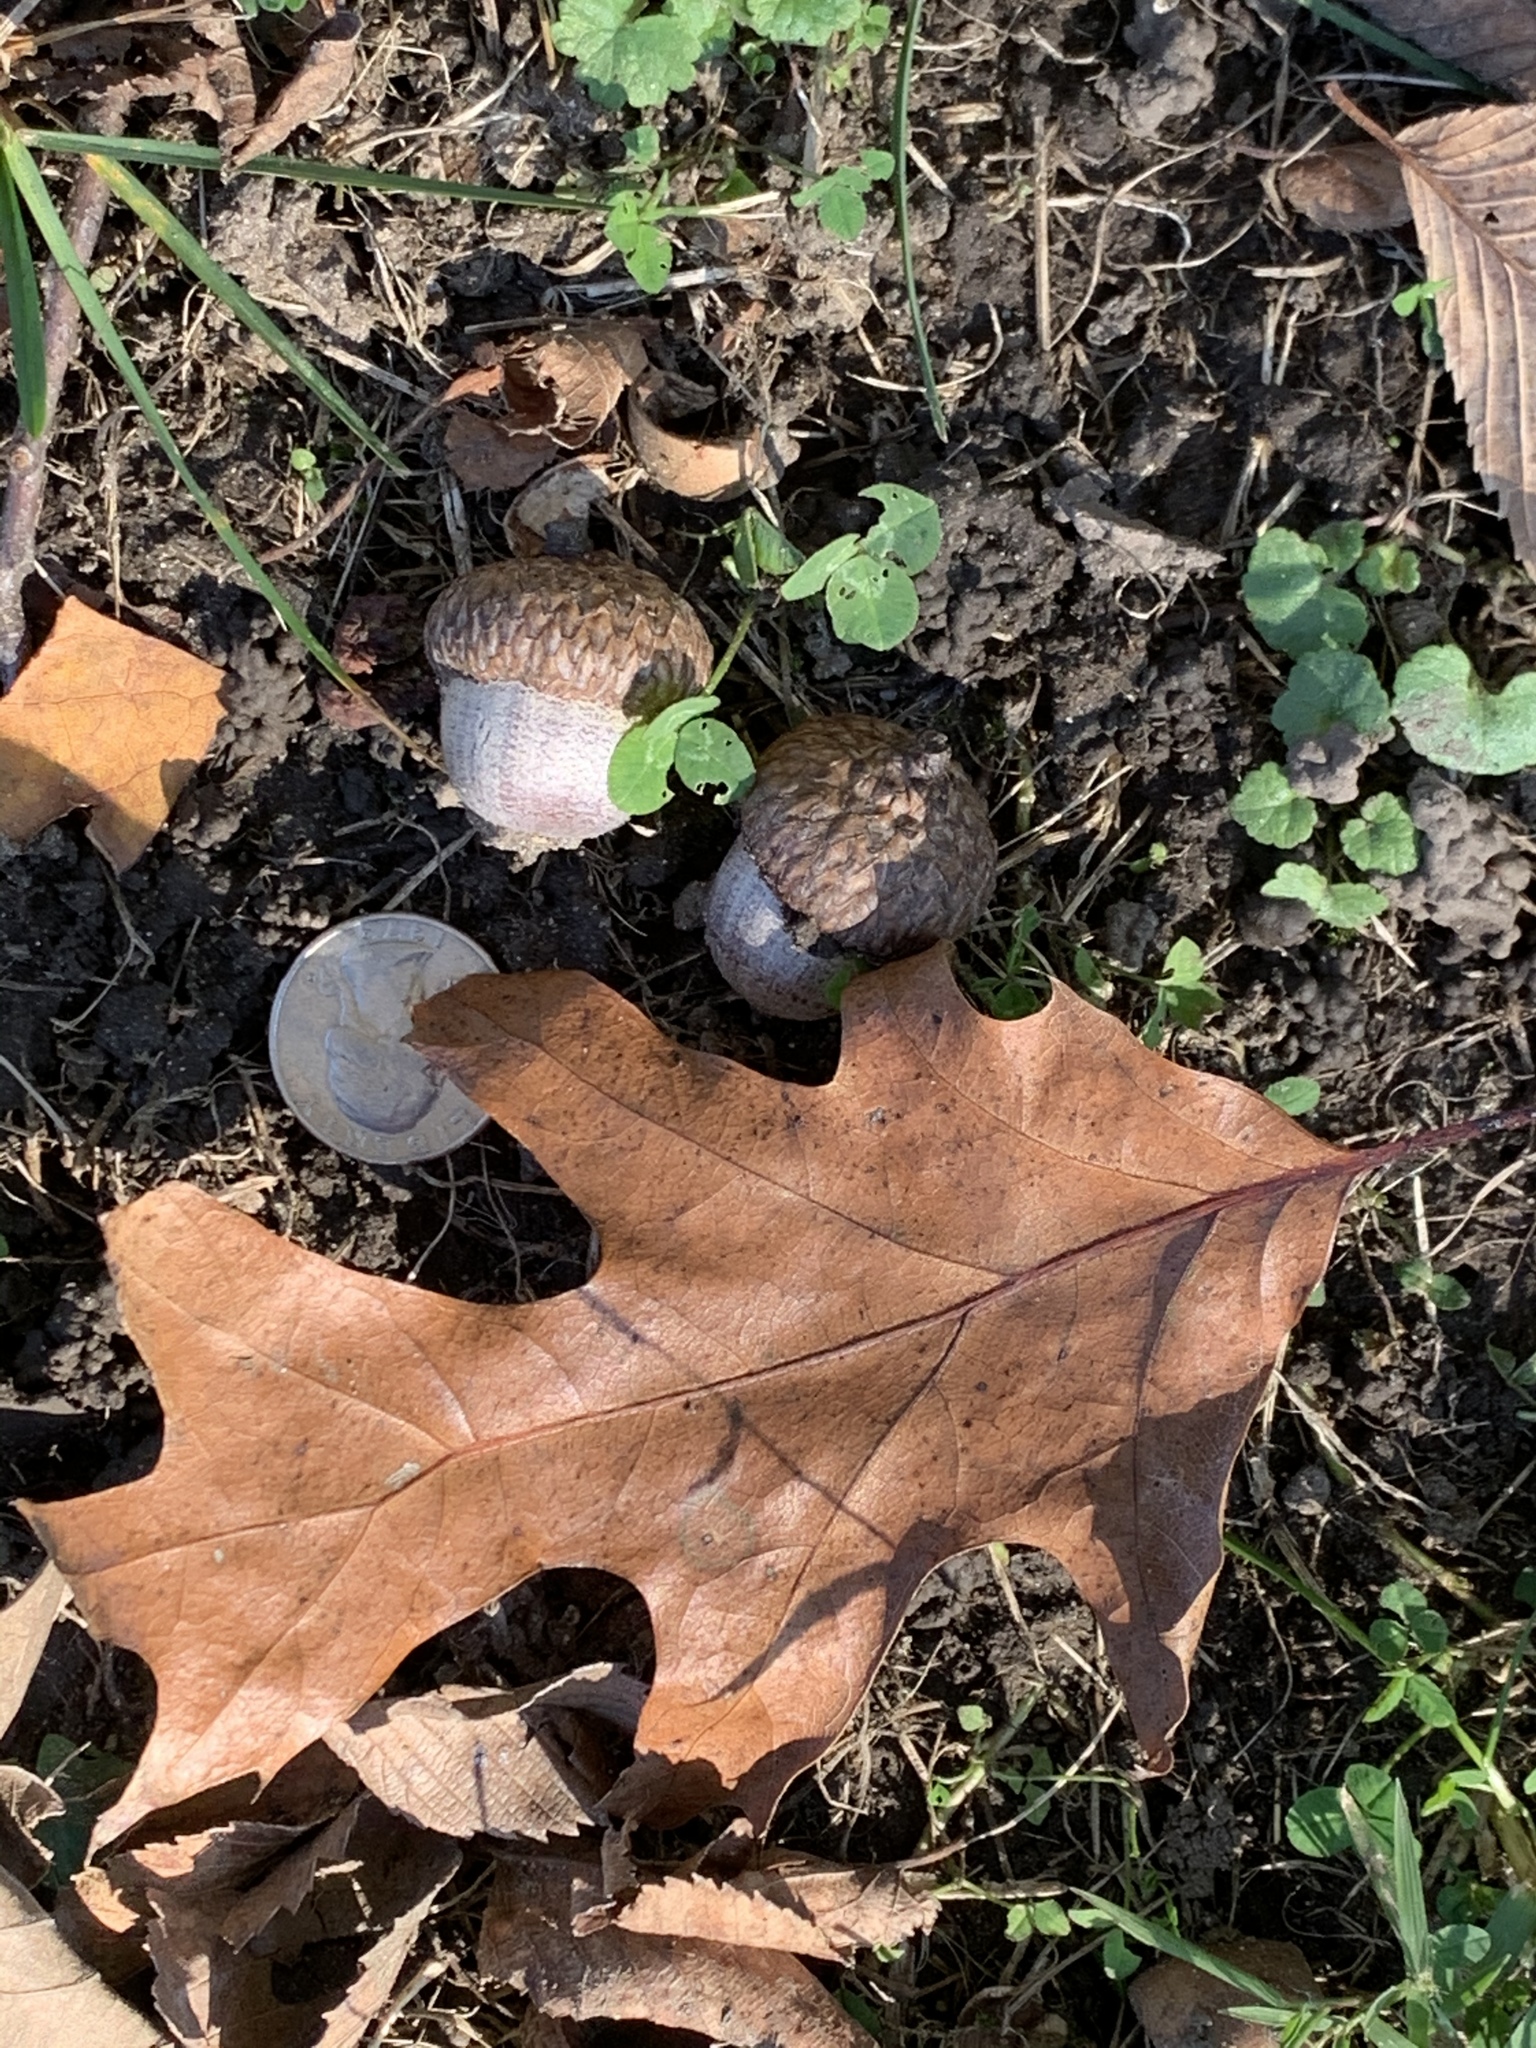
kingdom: Plantae
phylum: Tracheophyta
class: Magnoliopsida
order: Fagales
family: Fagaceae
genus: Quercus
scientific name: Quercus rubra
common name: Red oak
